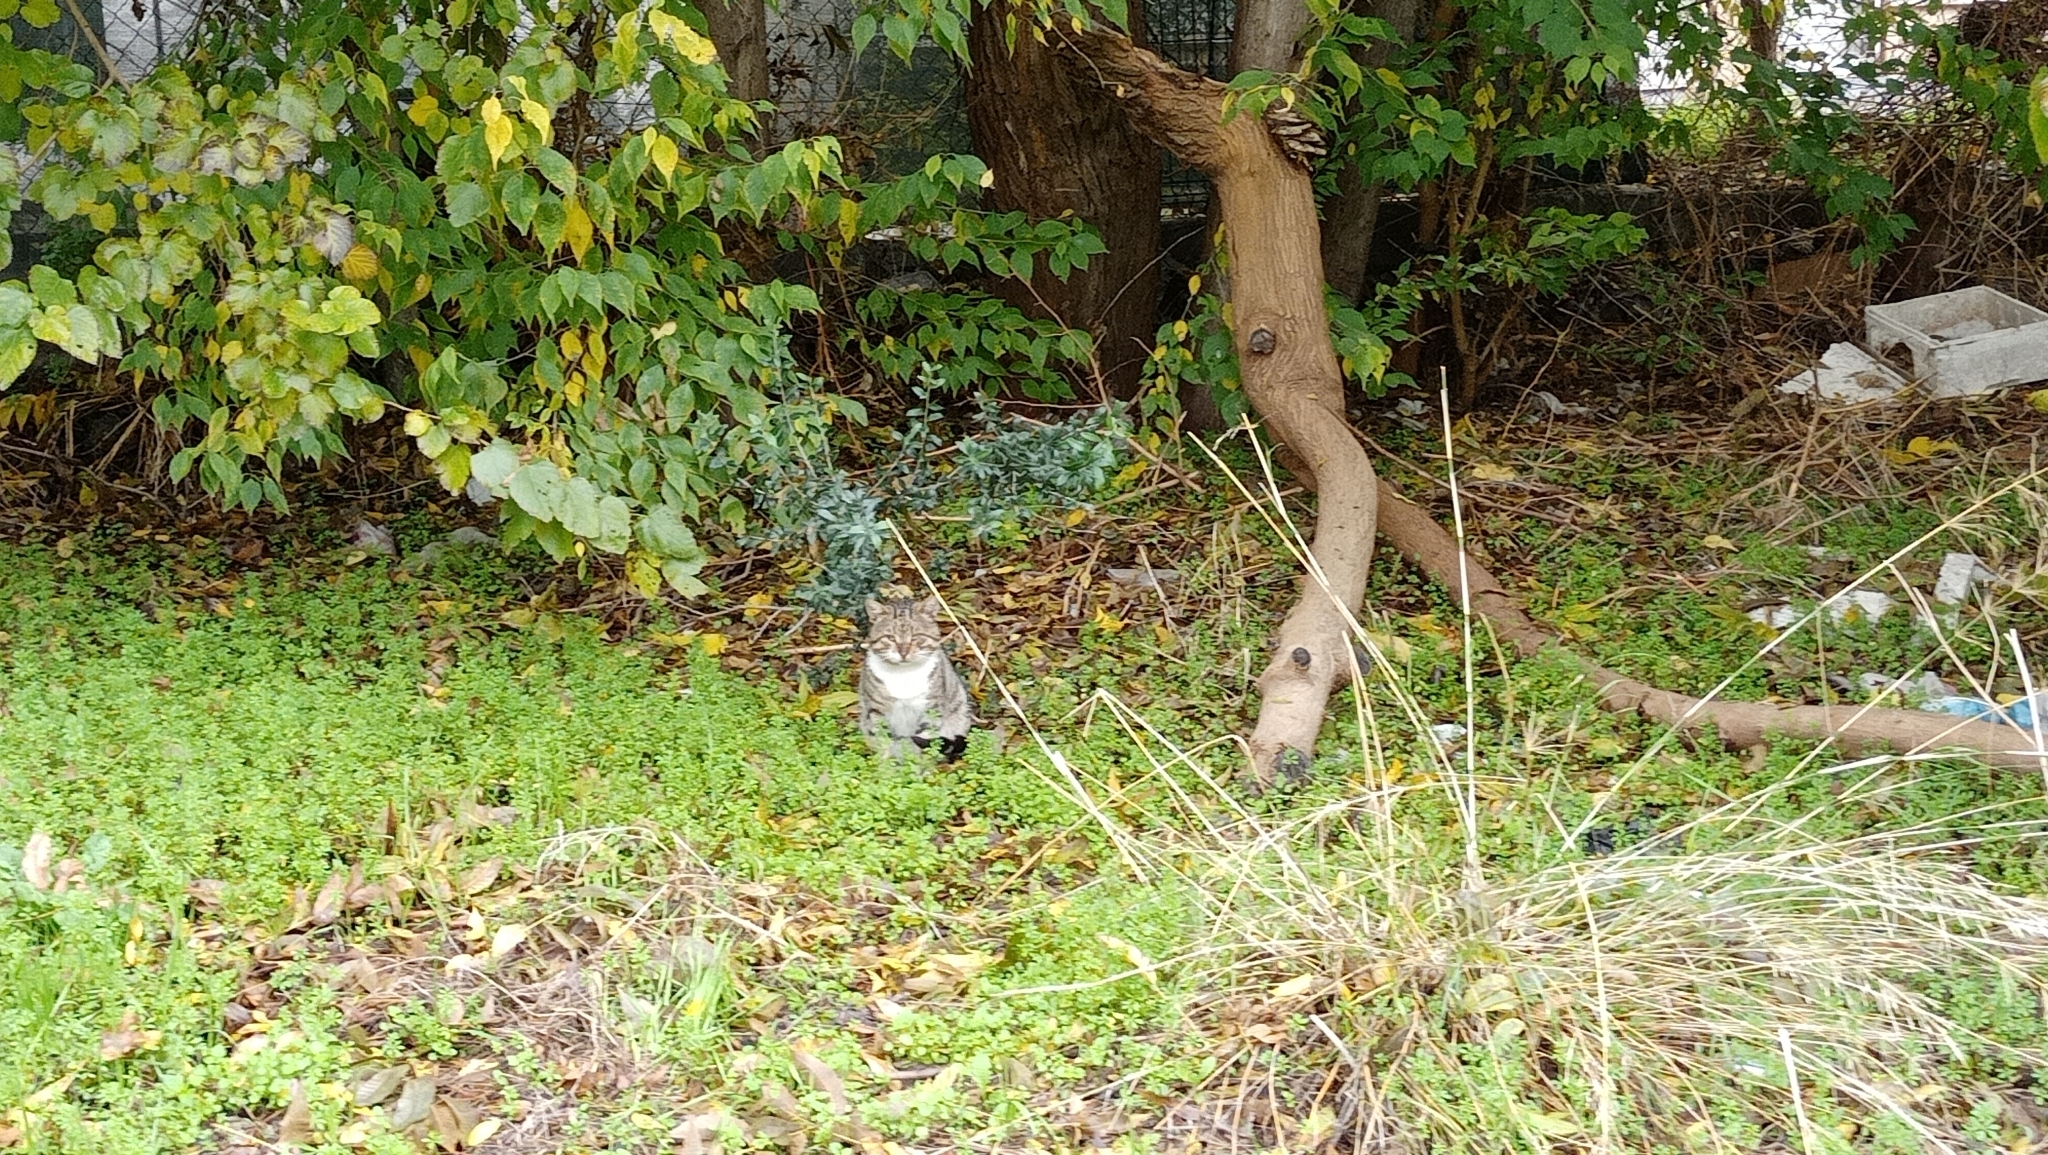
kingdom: Animalia
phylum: Chordata
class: Mammalia
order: Carnivora
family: Felidae
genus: Felis
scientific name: Felis catus
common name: Domestic cat
